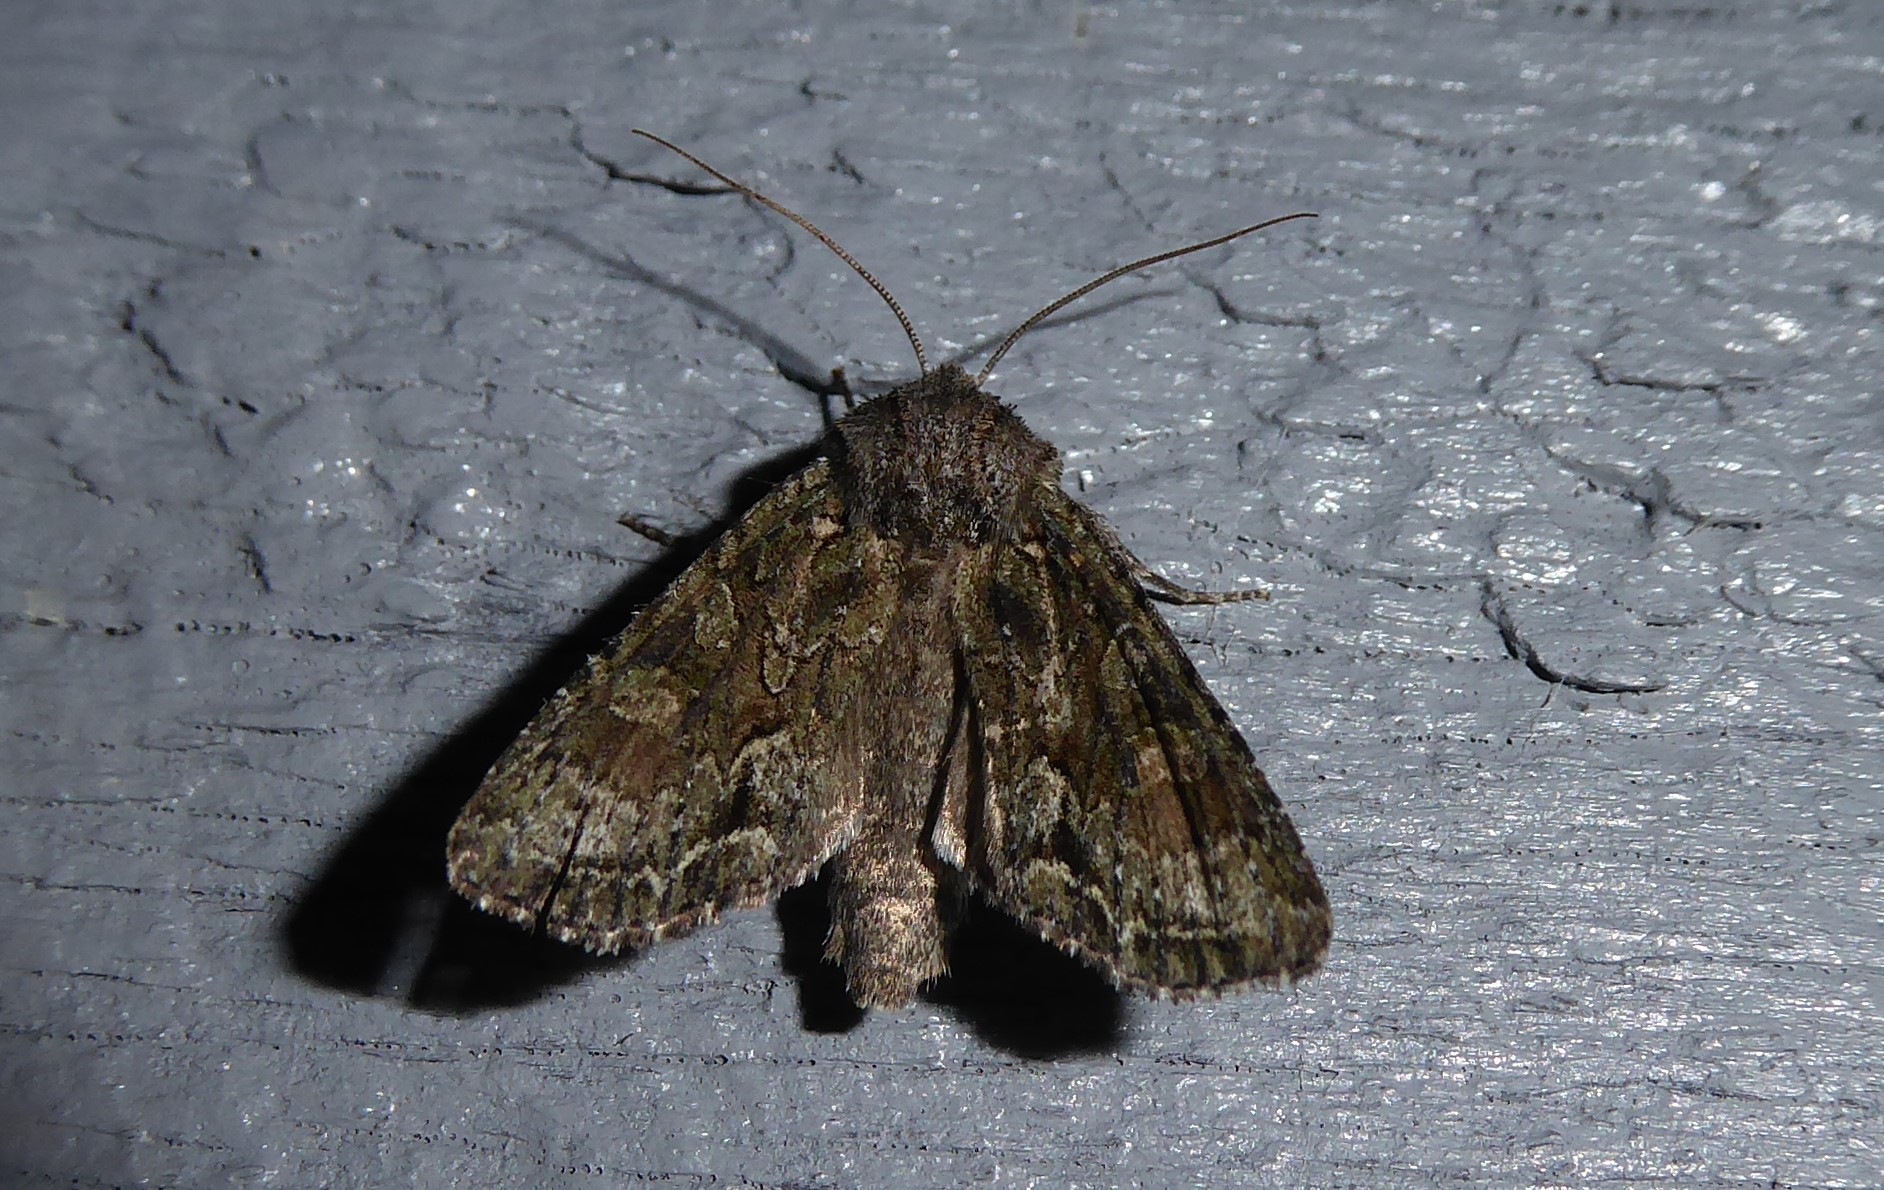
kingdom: Animalia
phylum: Arthropoda
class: Insecta
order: Lepidoptera
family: Noctuidae
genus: Ichneutica
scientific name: Ichneutica mutans
